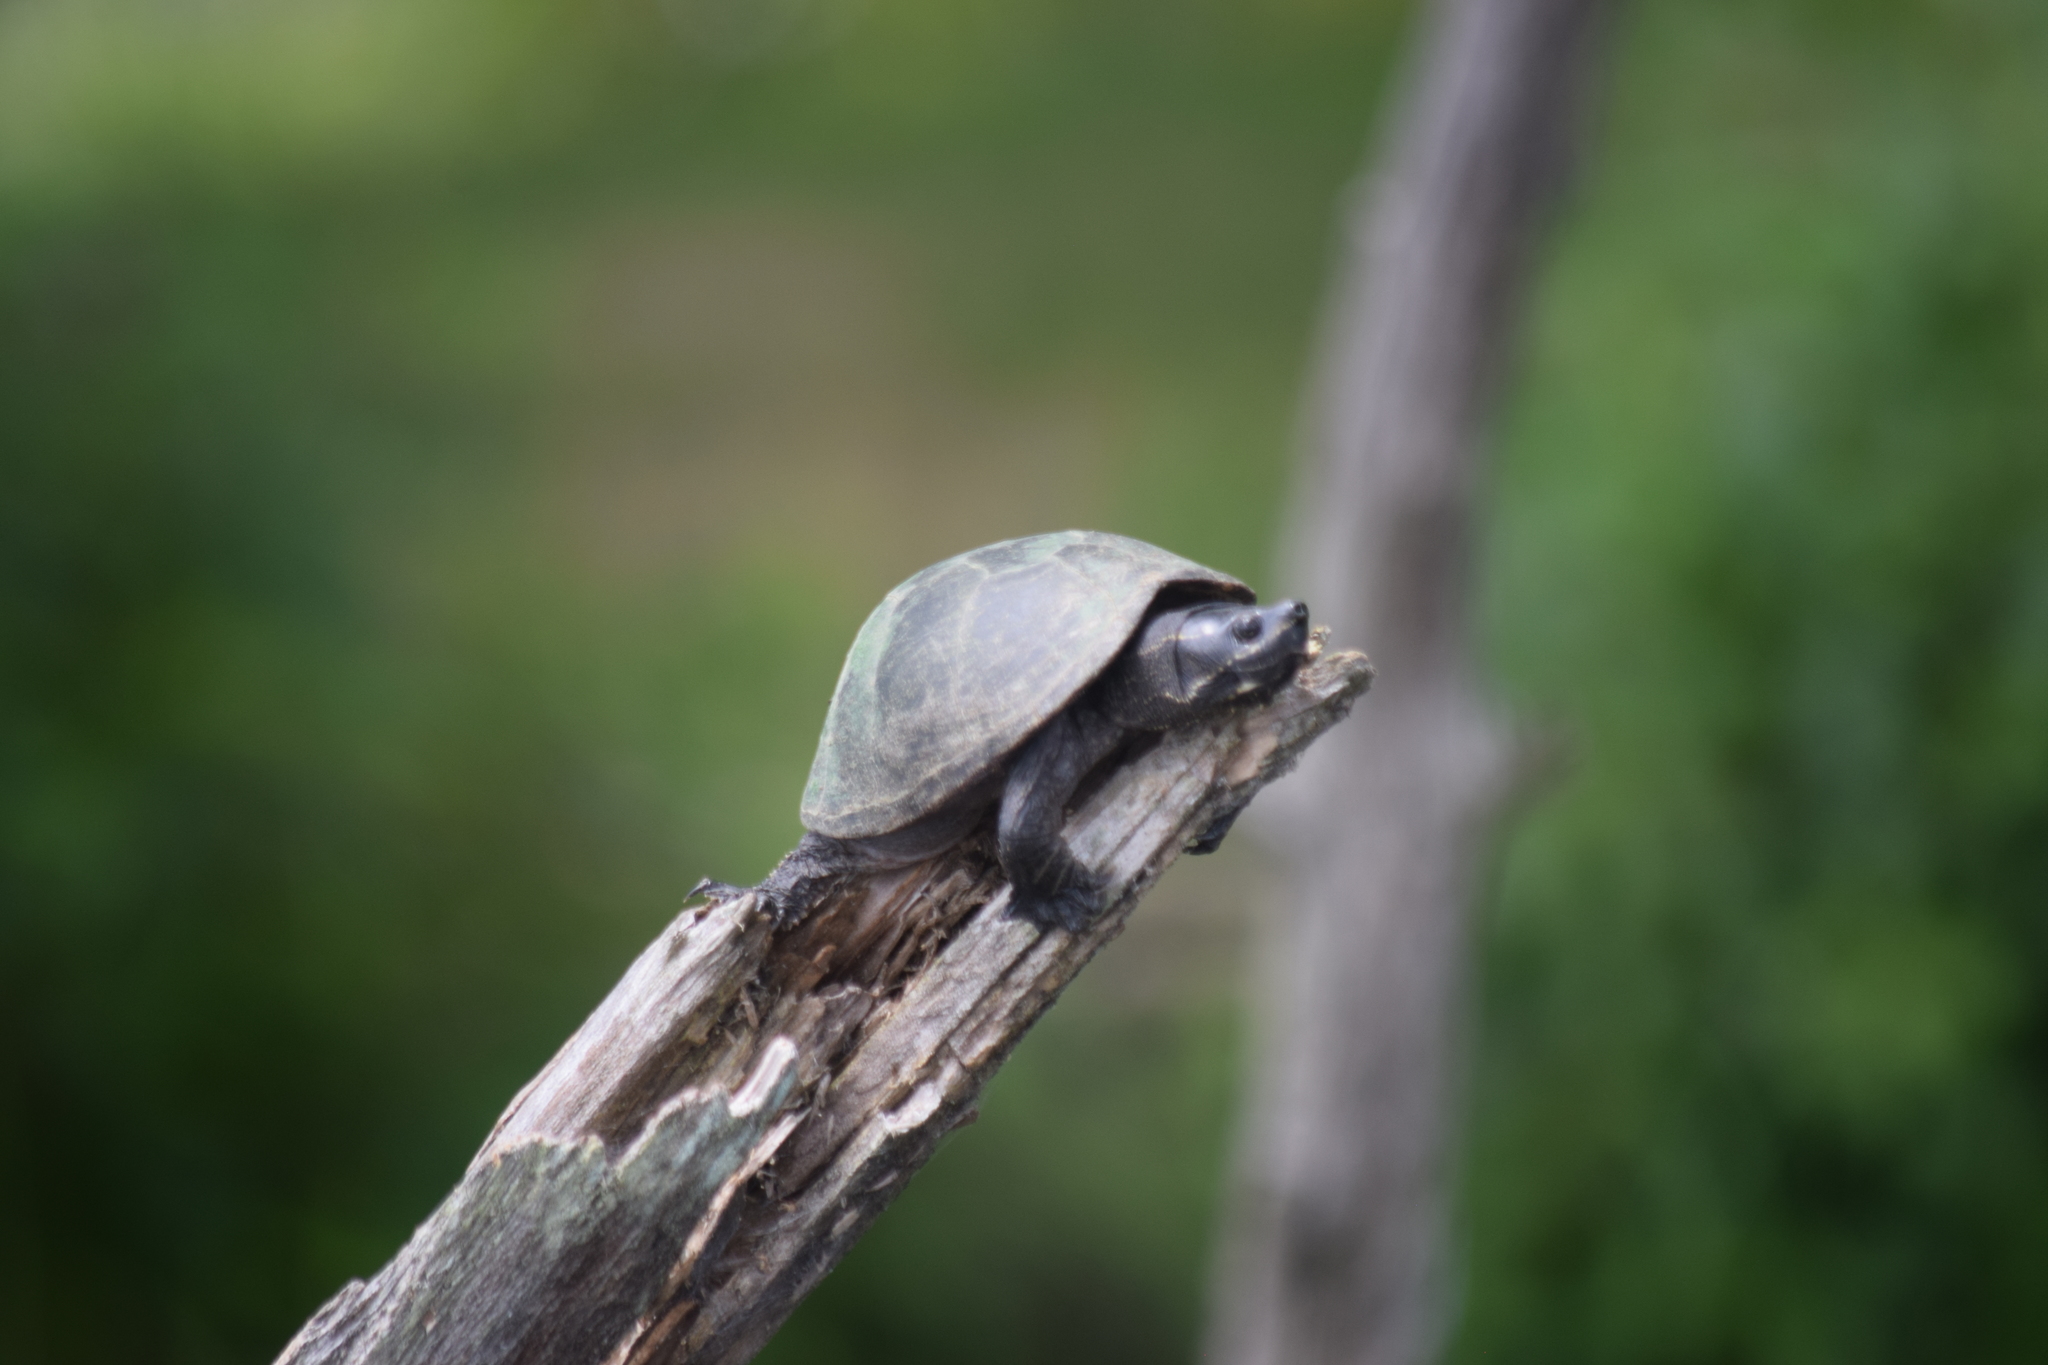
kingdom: Animalia
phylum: Chordata
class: Testudines
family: Kinosternidae
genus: Sternotherus
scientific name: Sternotherus odoratus
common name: Common musk turtle
